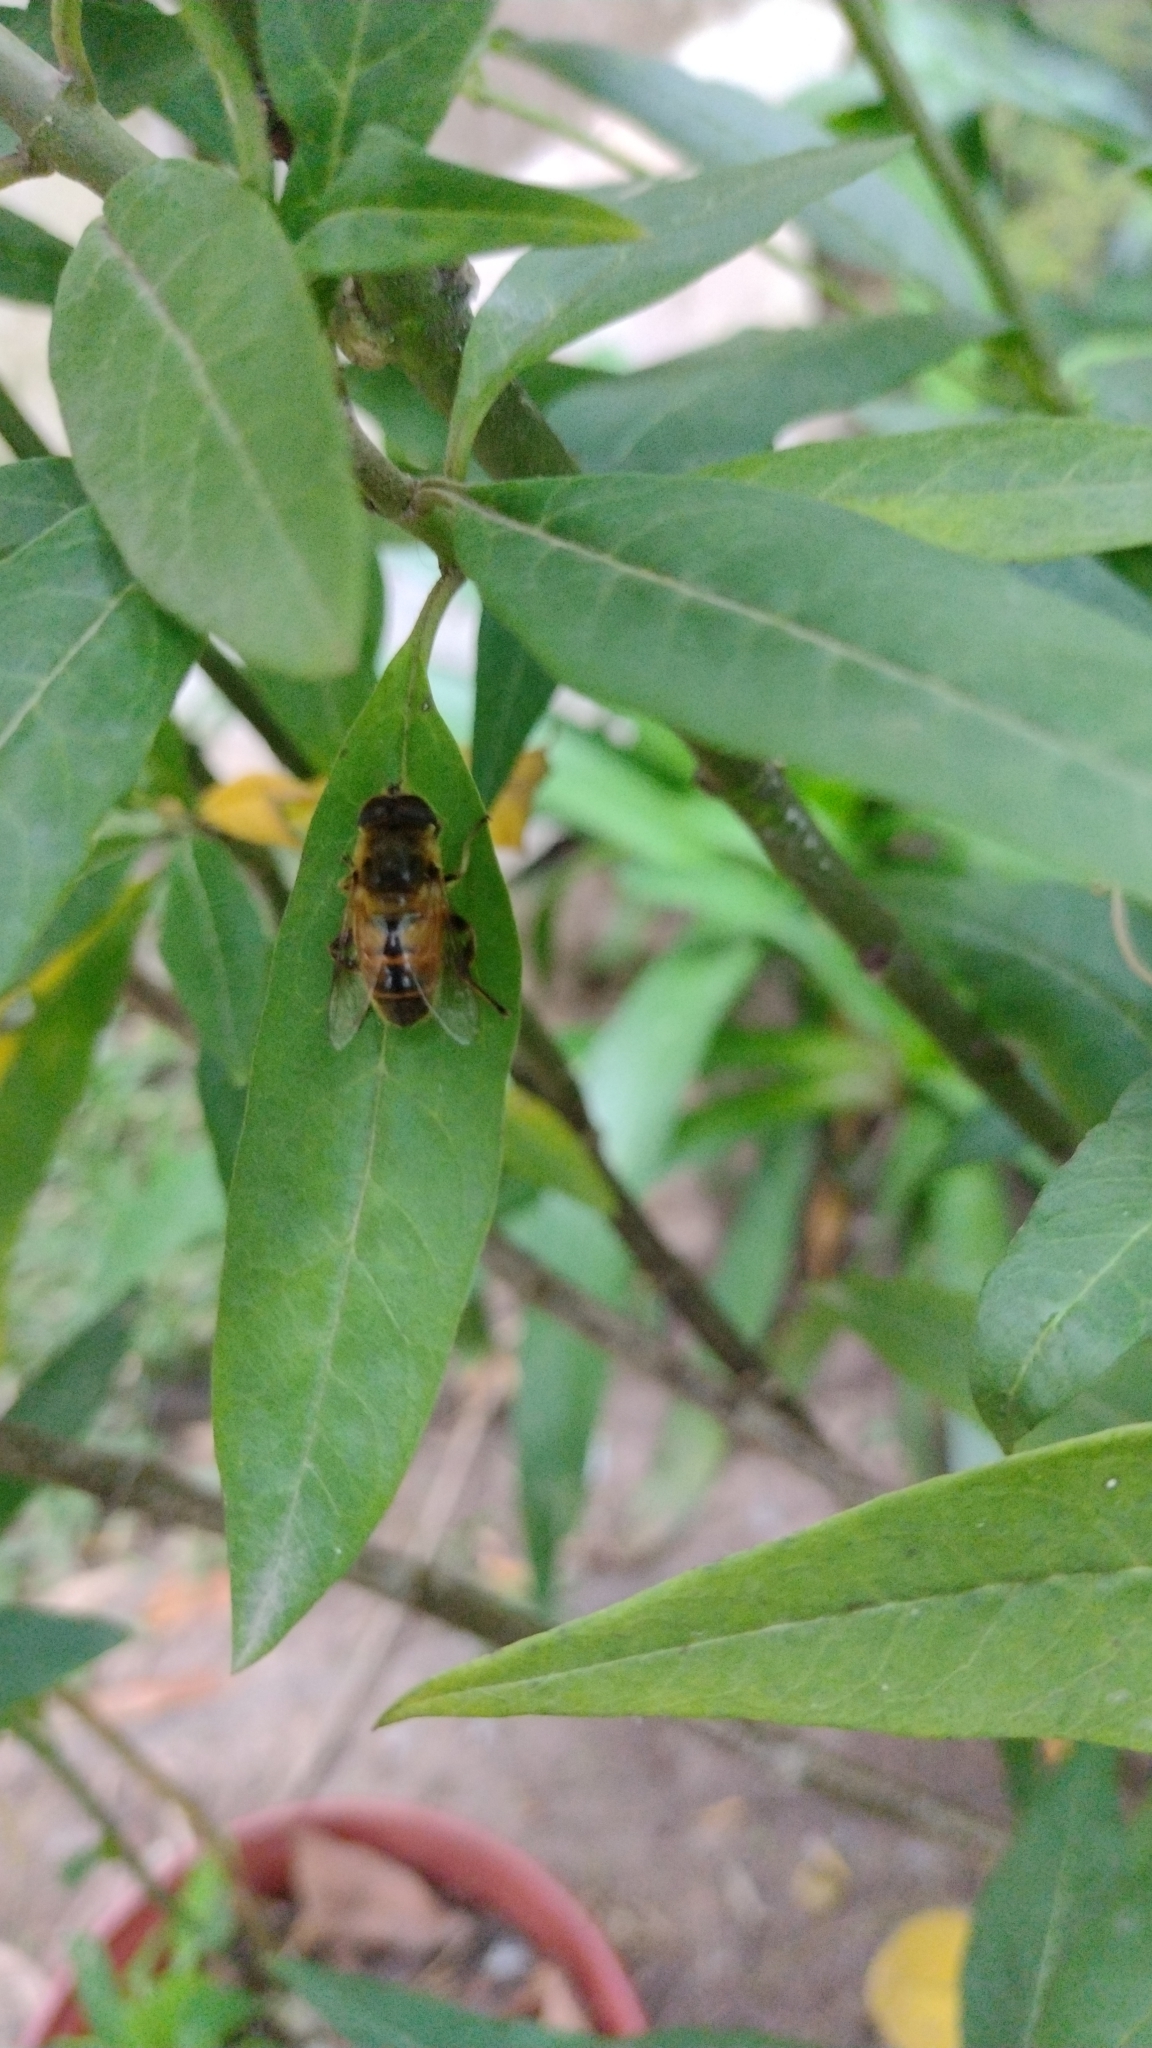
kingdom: Animalia
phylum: Arthropoda
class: Insecta
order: Diptera
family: Syrphidae
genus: Eristalis
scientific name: Eristalis tenax
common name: Drone fly
